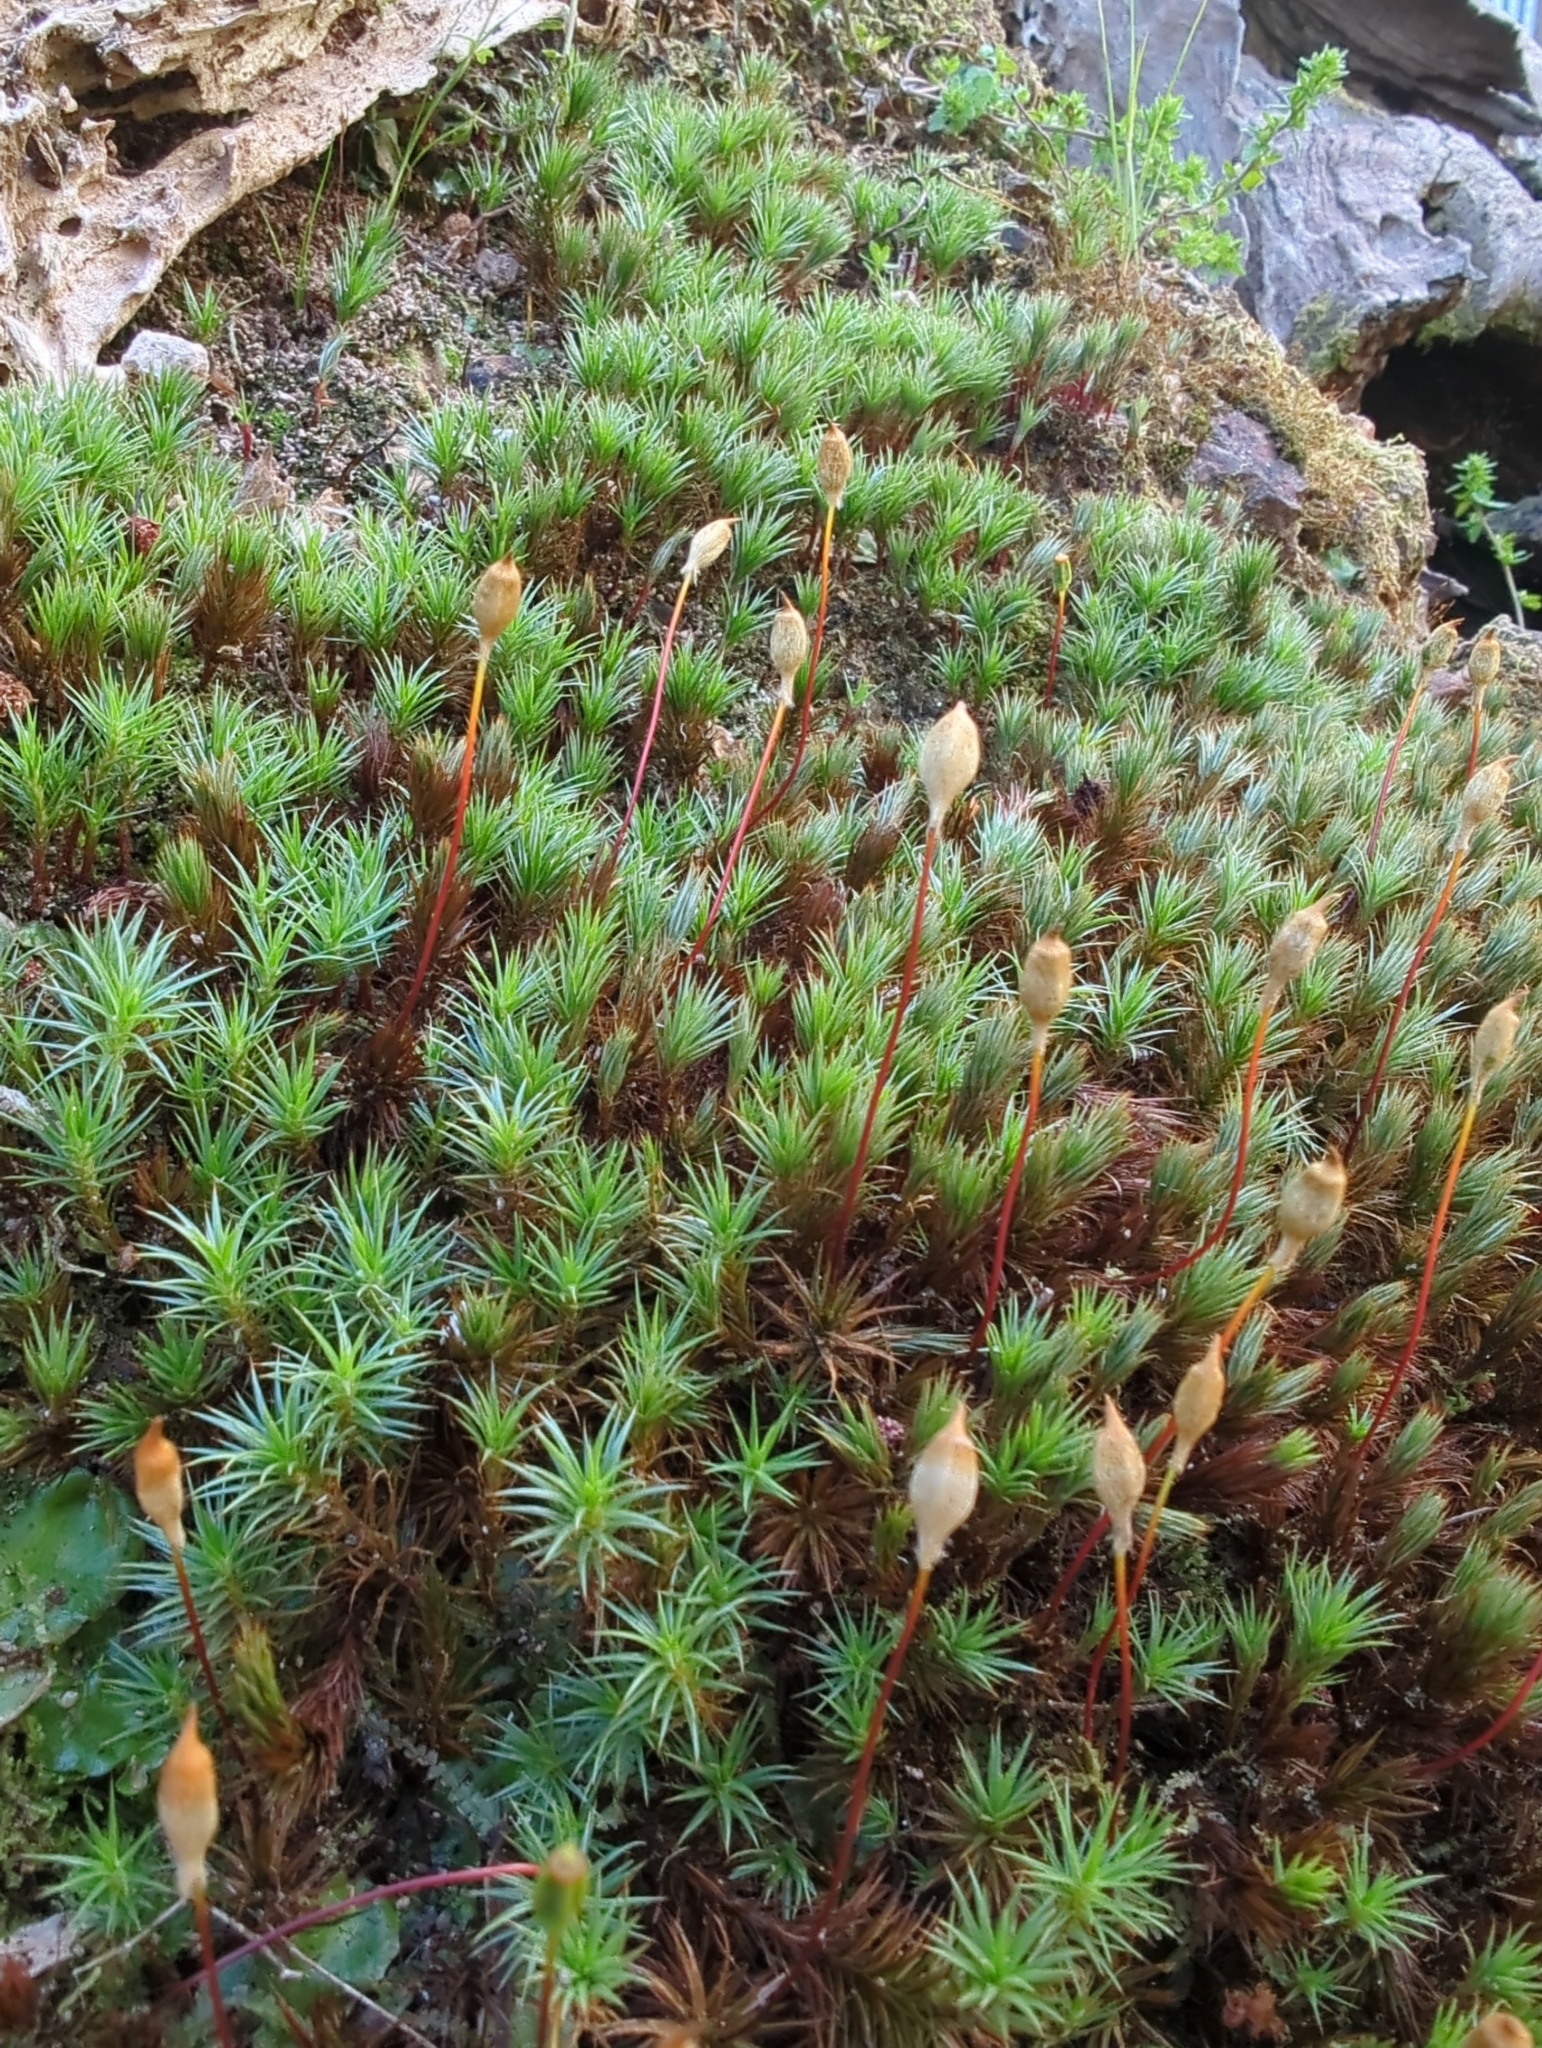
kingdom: Plantae
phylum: Bryophyta
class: Polytrichopsida
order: Polytrichales
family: Polytrichaceae
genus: Polytrichum
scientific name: Polytrichum juniperinum
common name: Juniper haircap moss
